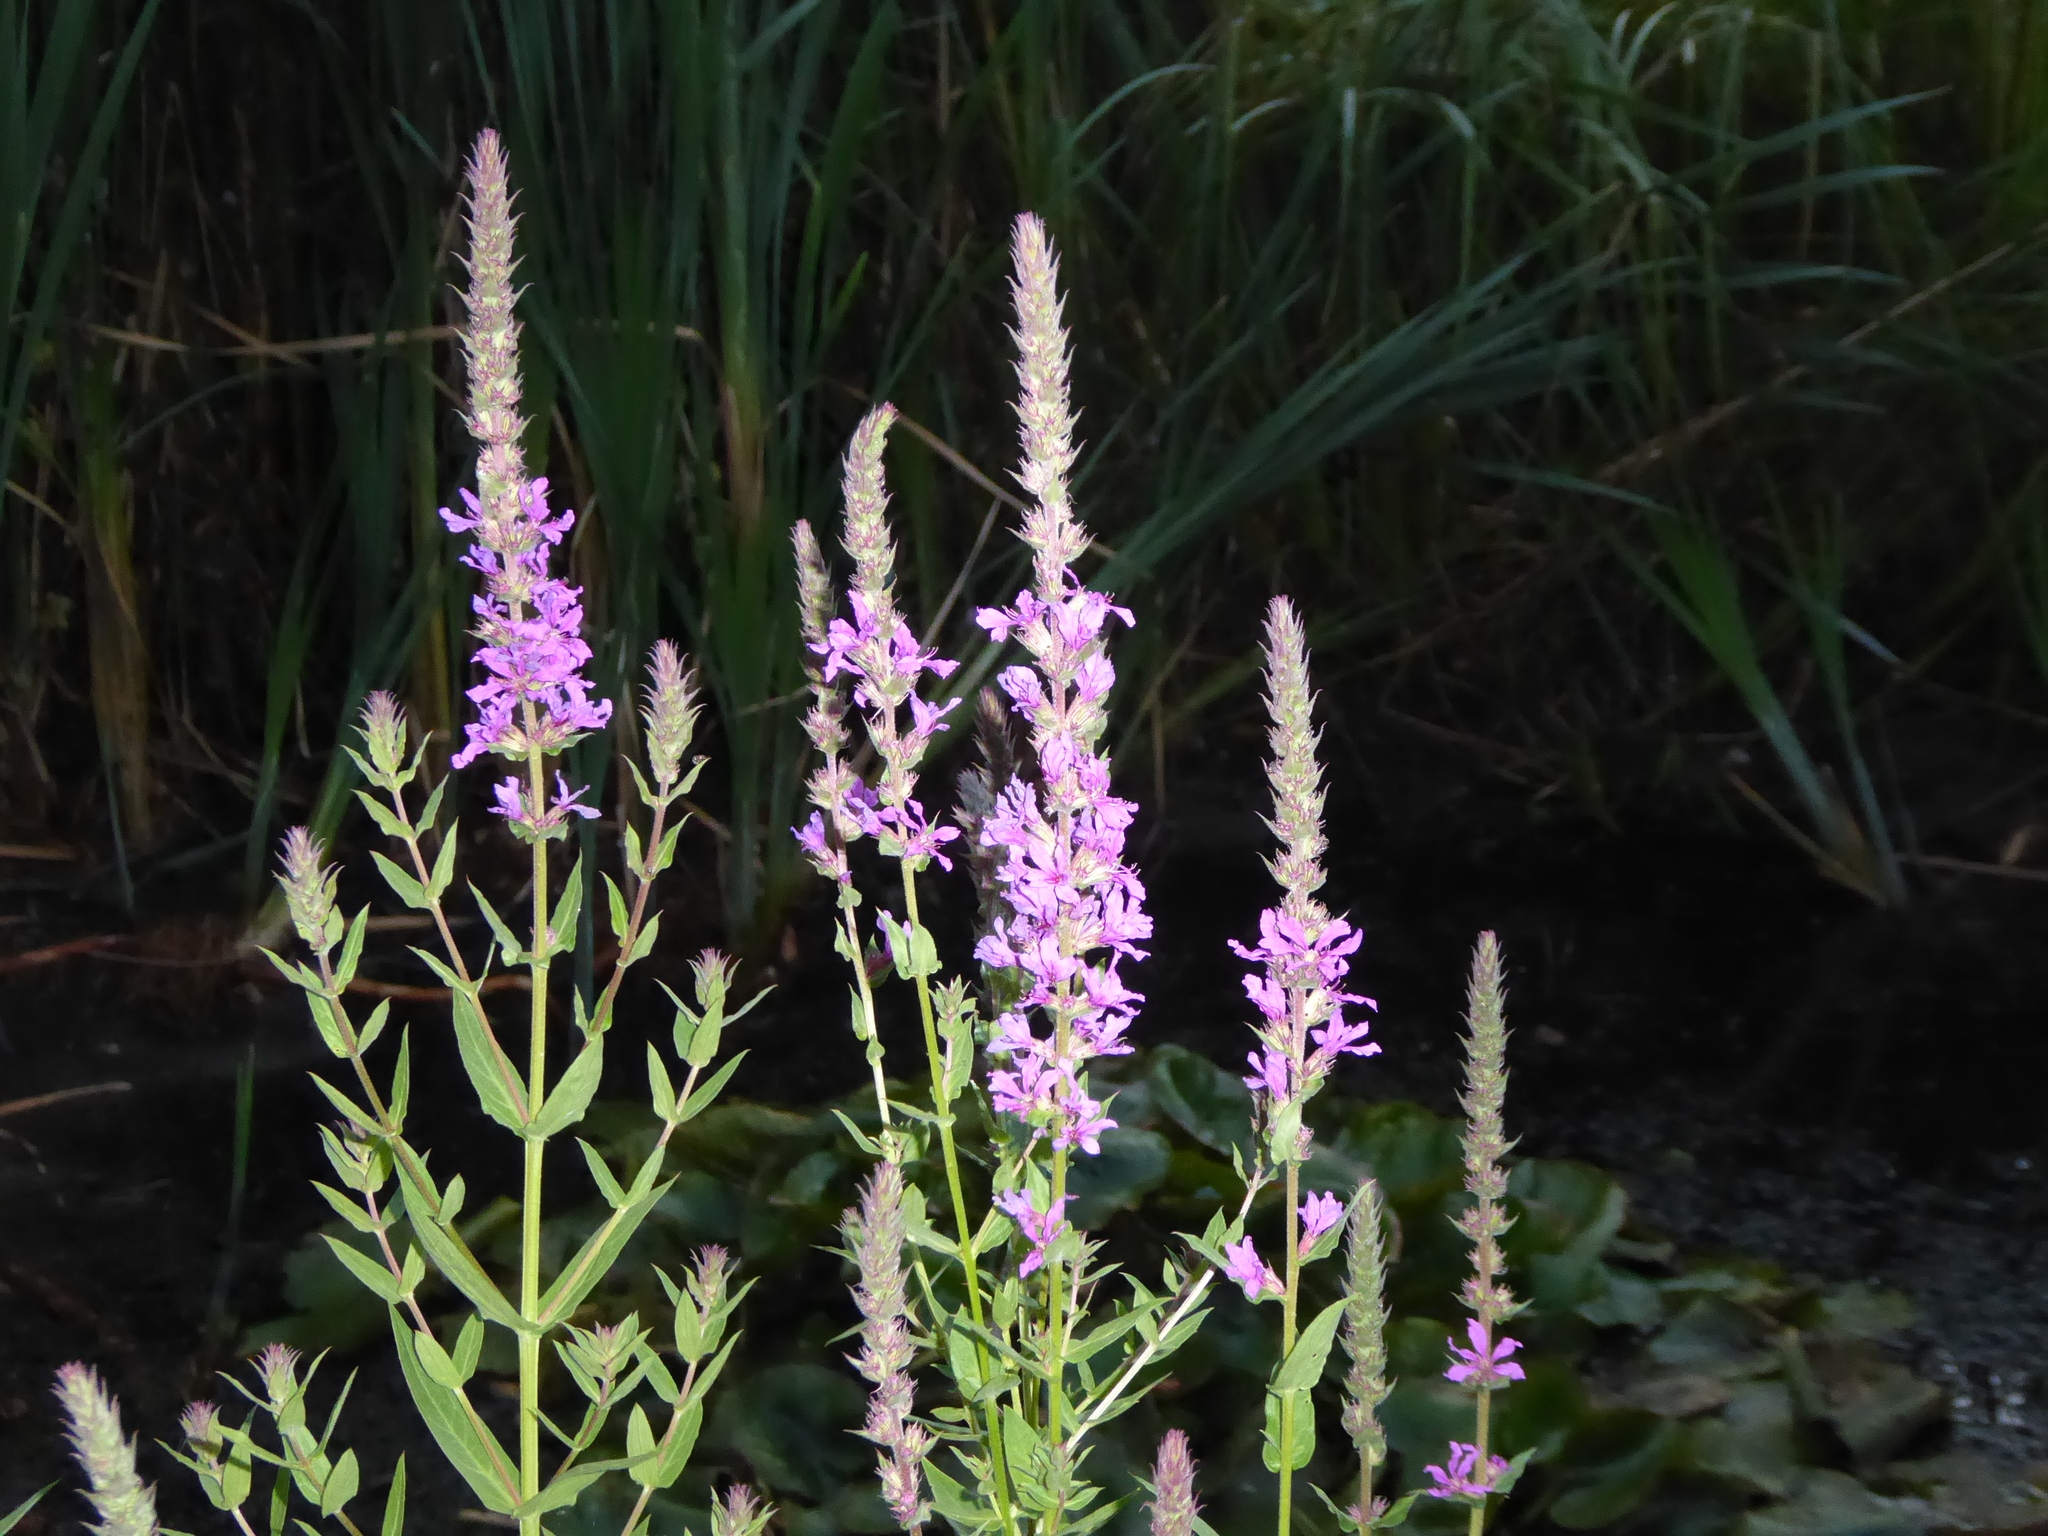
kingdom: Plantae
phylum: Tracheophyta
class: Magnoliopsida
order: Myrtales
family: Lythraceae
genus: Lythrum
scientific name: Lythrum salicaria
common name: Purple loosestrife
